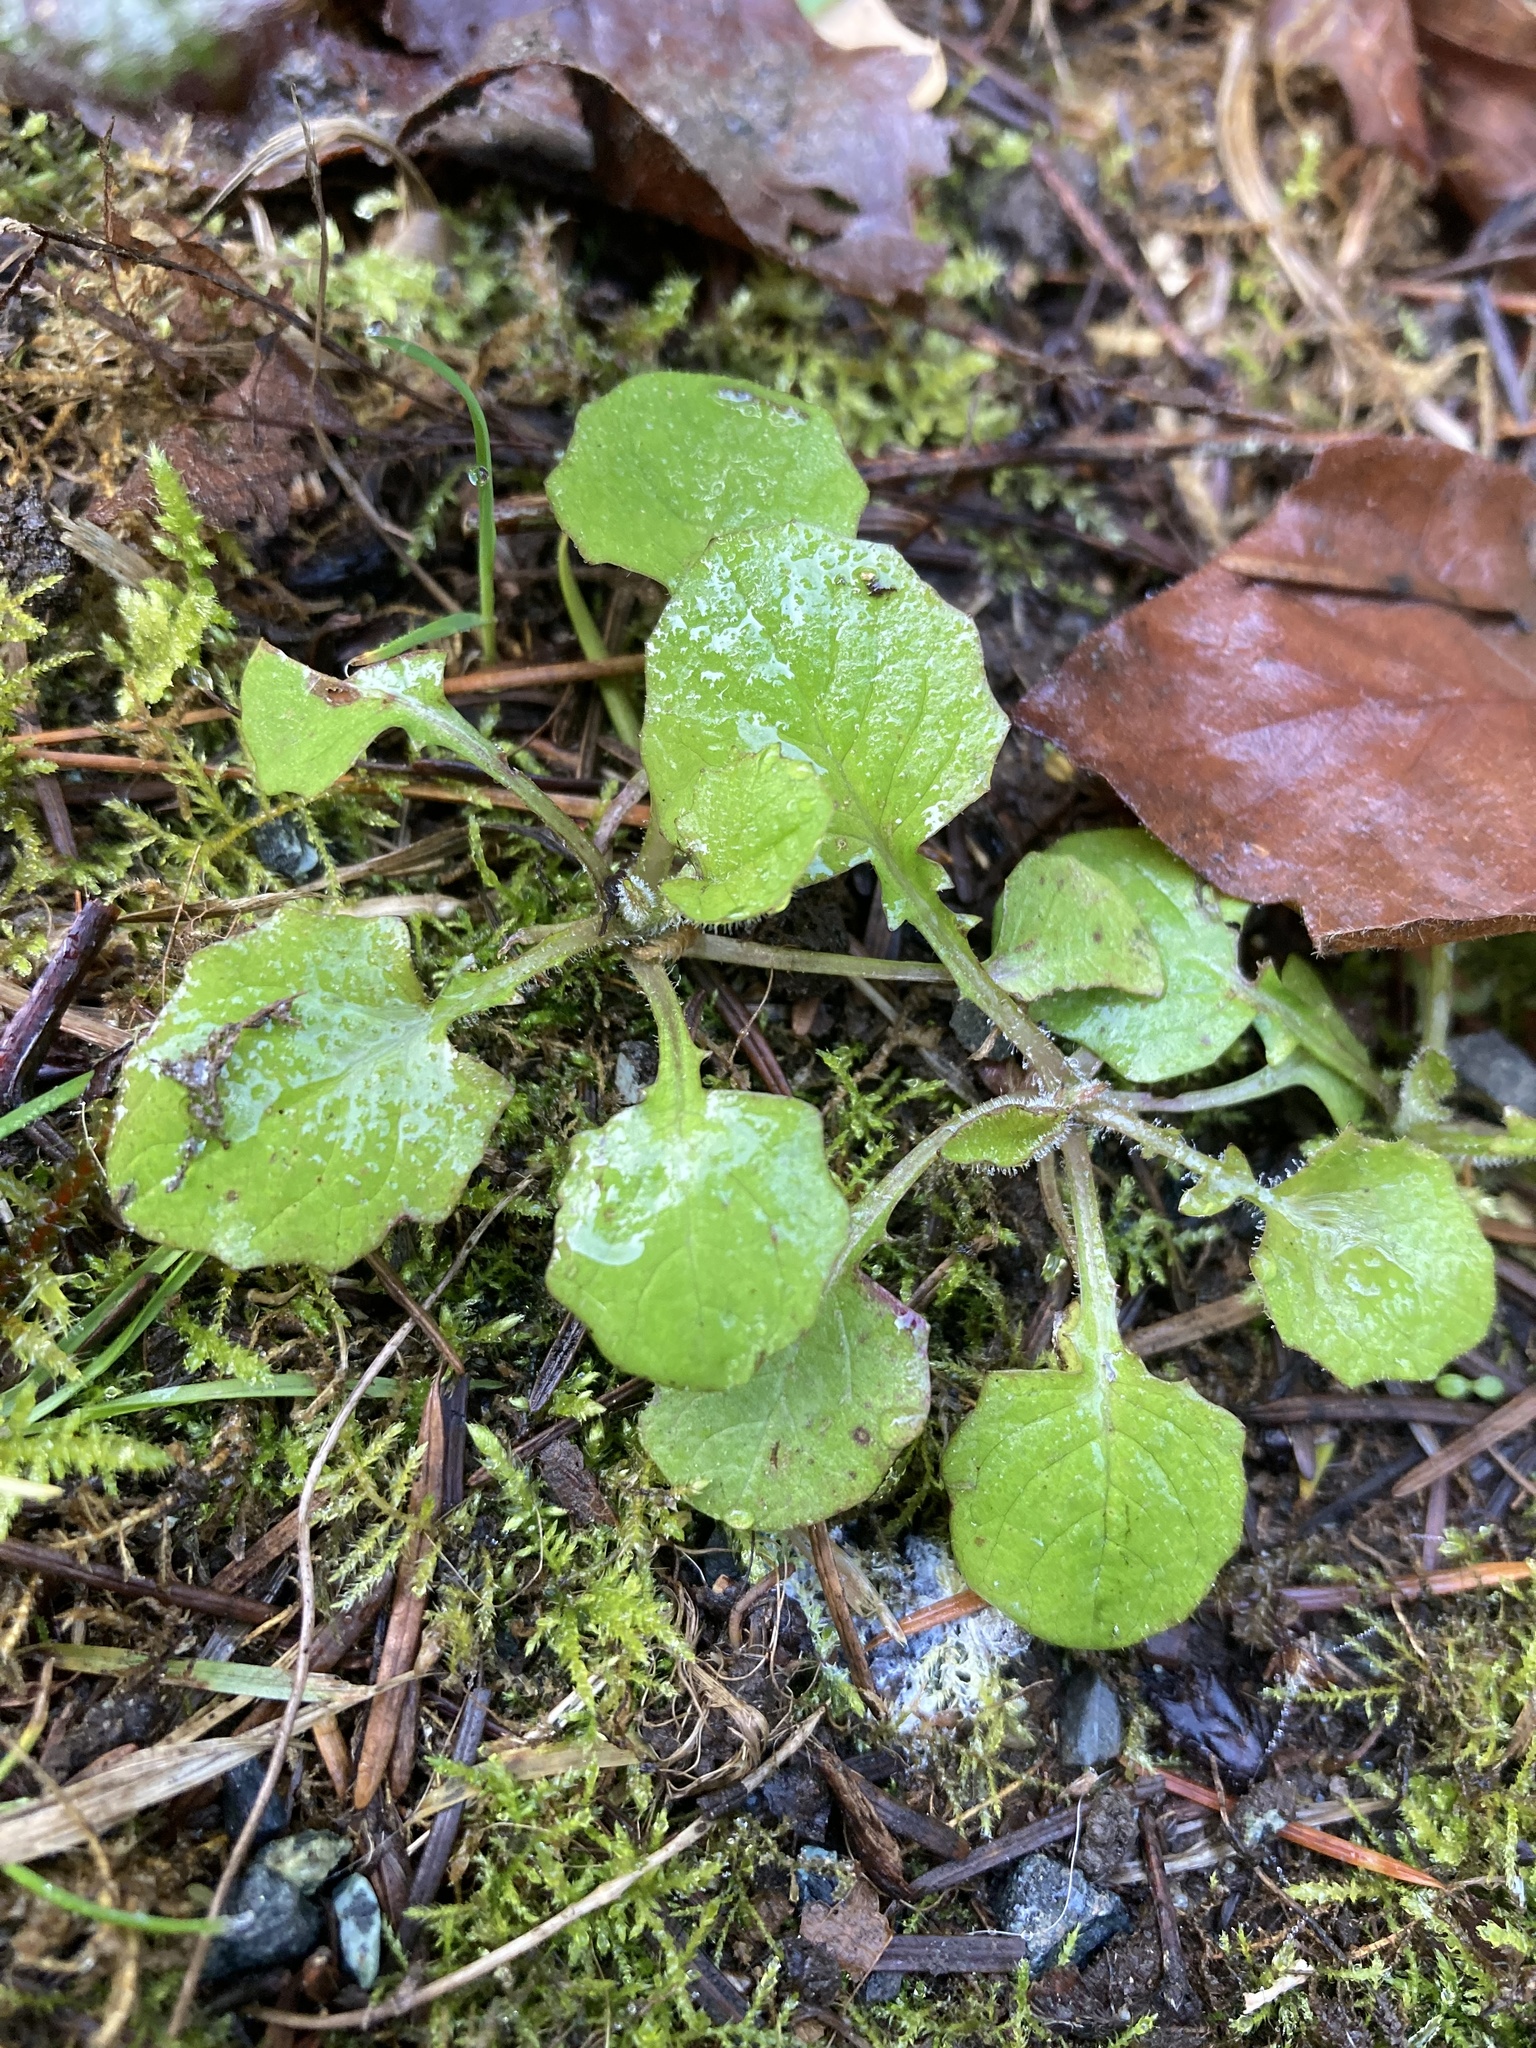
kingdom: Plantae
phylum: Tracheophyta
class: Magnoliopsida
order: Asterales
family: Asteraceae
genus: Lapsana
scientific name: Lapsana communis
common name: Nipplewort
